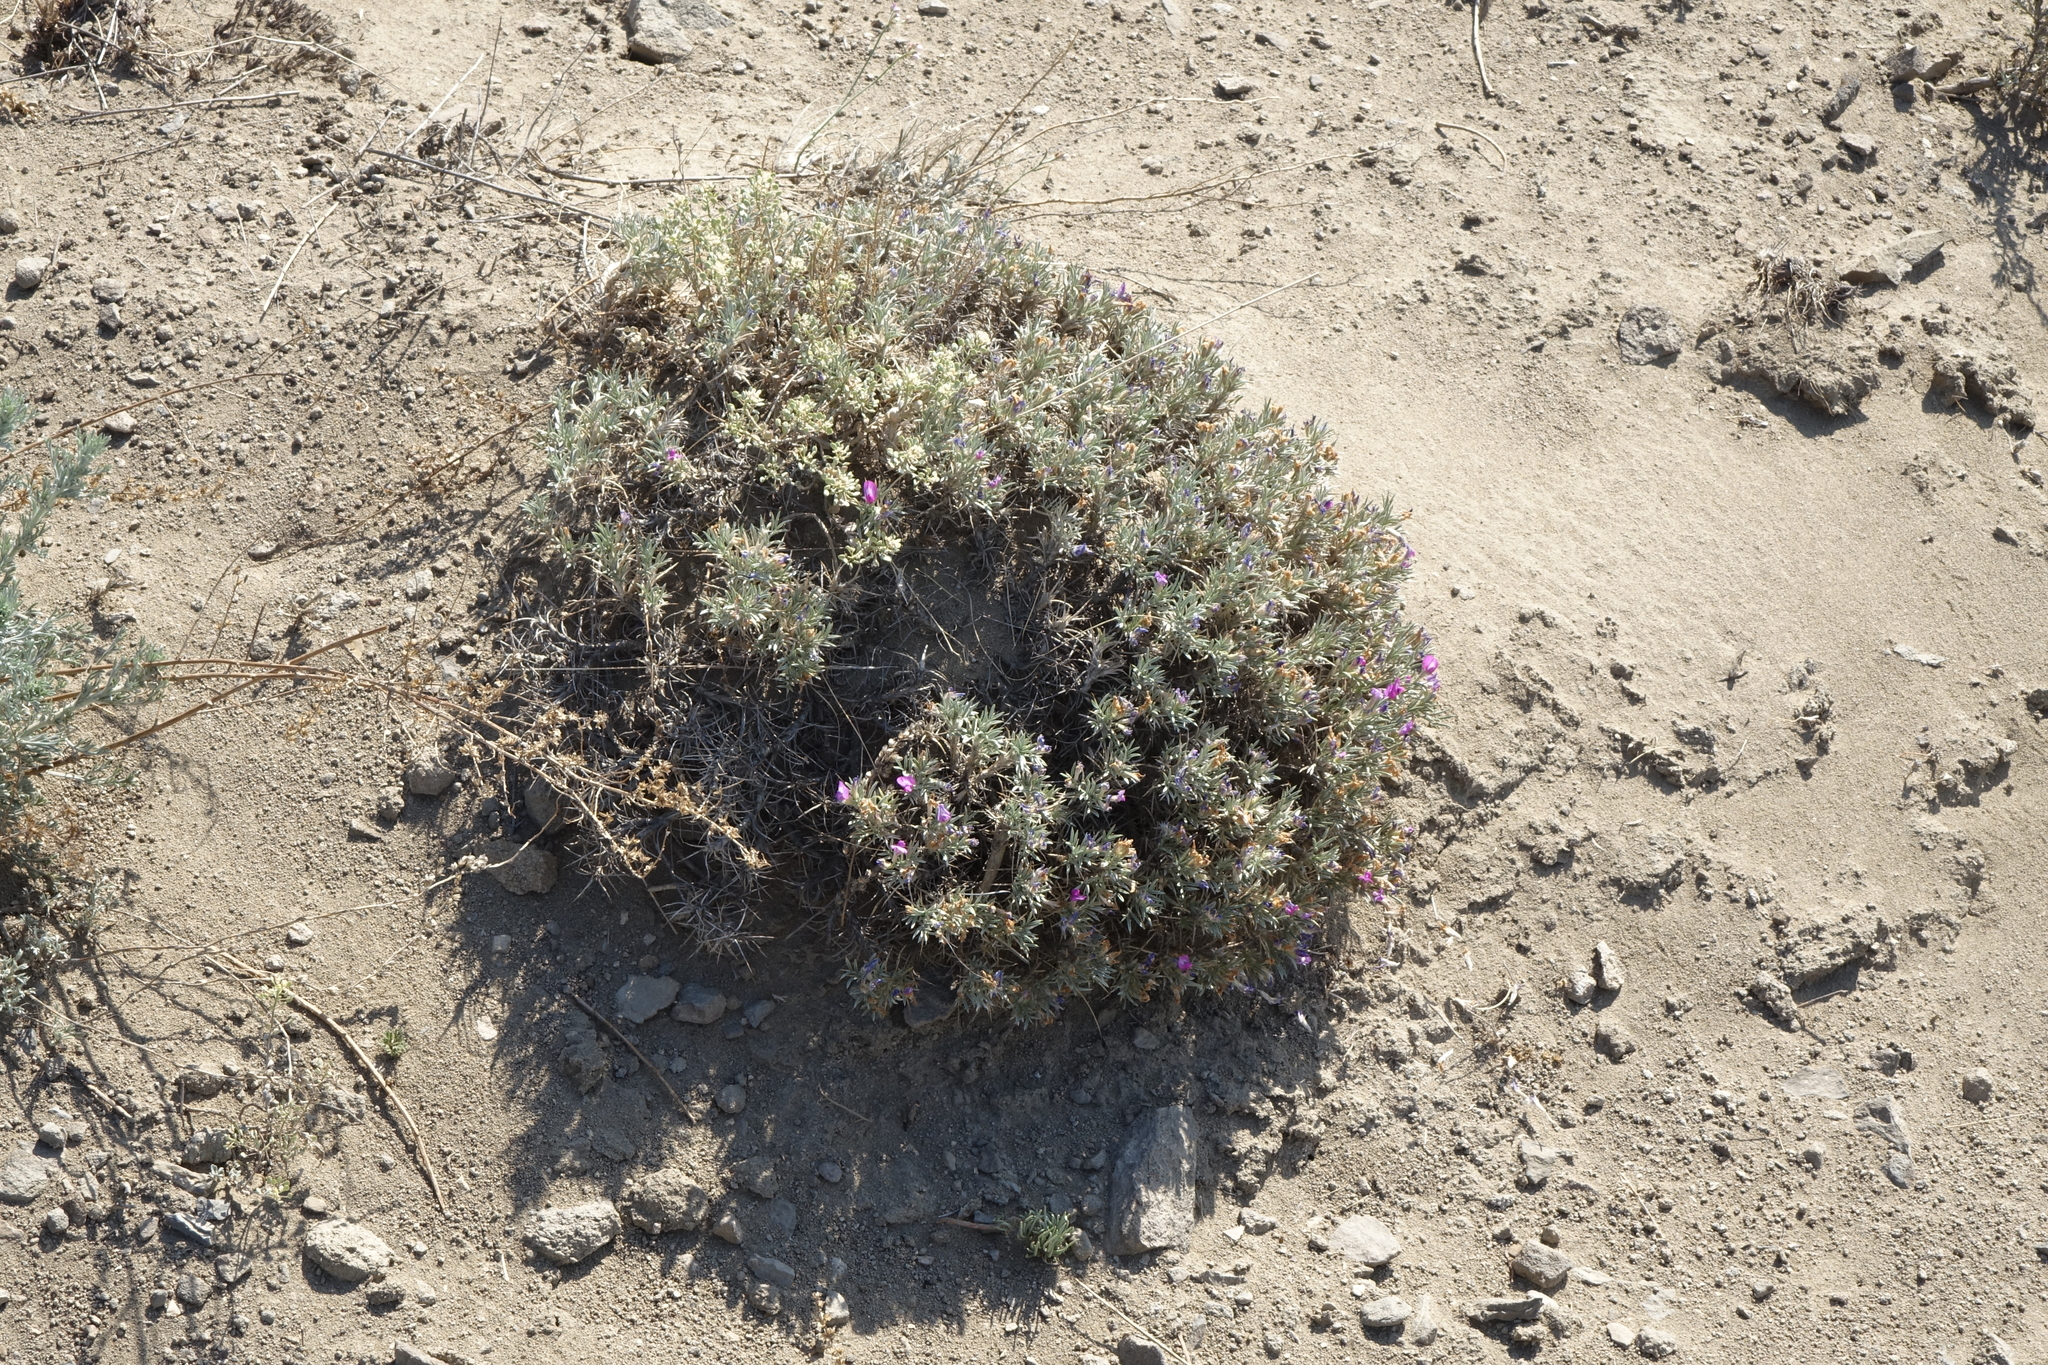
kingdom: Plantae
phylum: Tracheophyta
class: Magnoliopsida
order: Fabales
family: Fabaceae
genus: Oxytropis
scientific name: Oxytropis borissoviae
